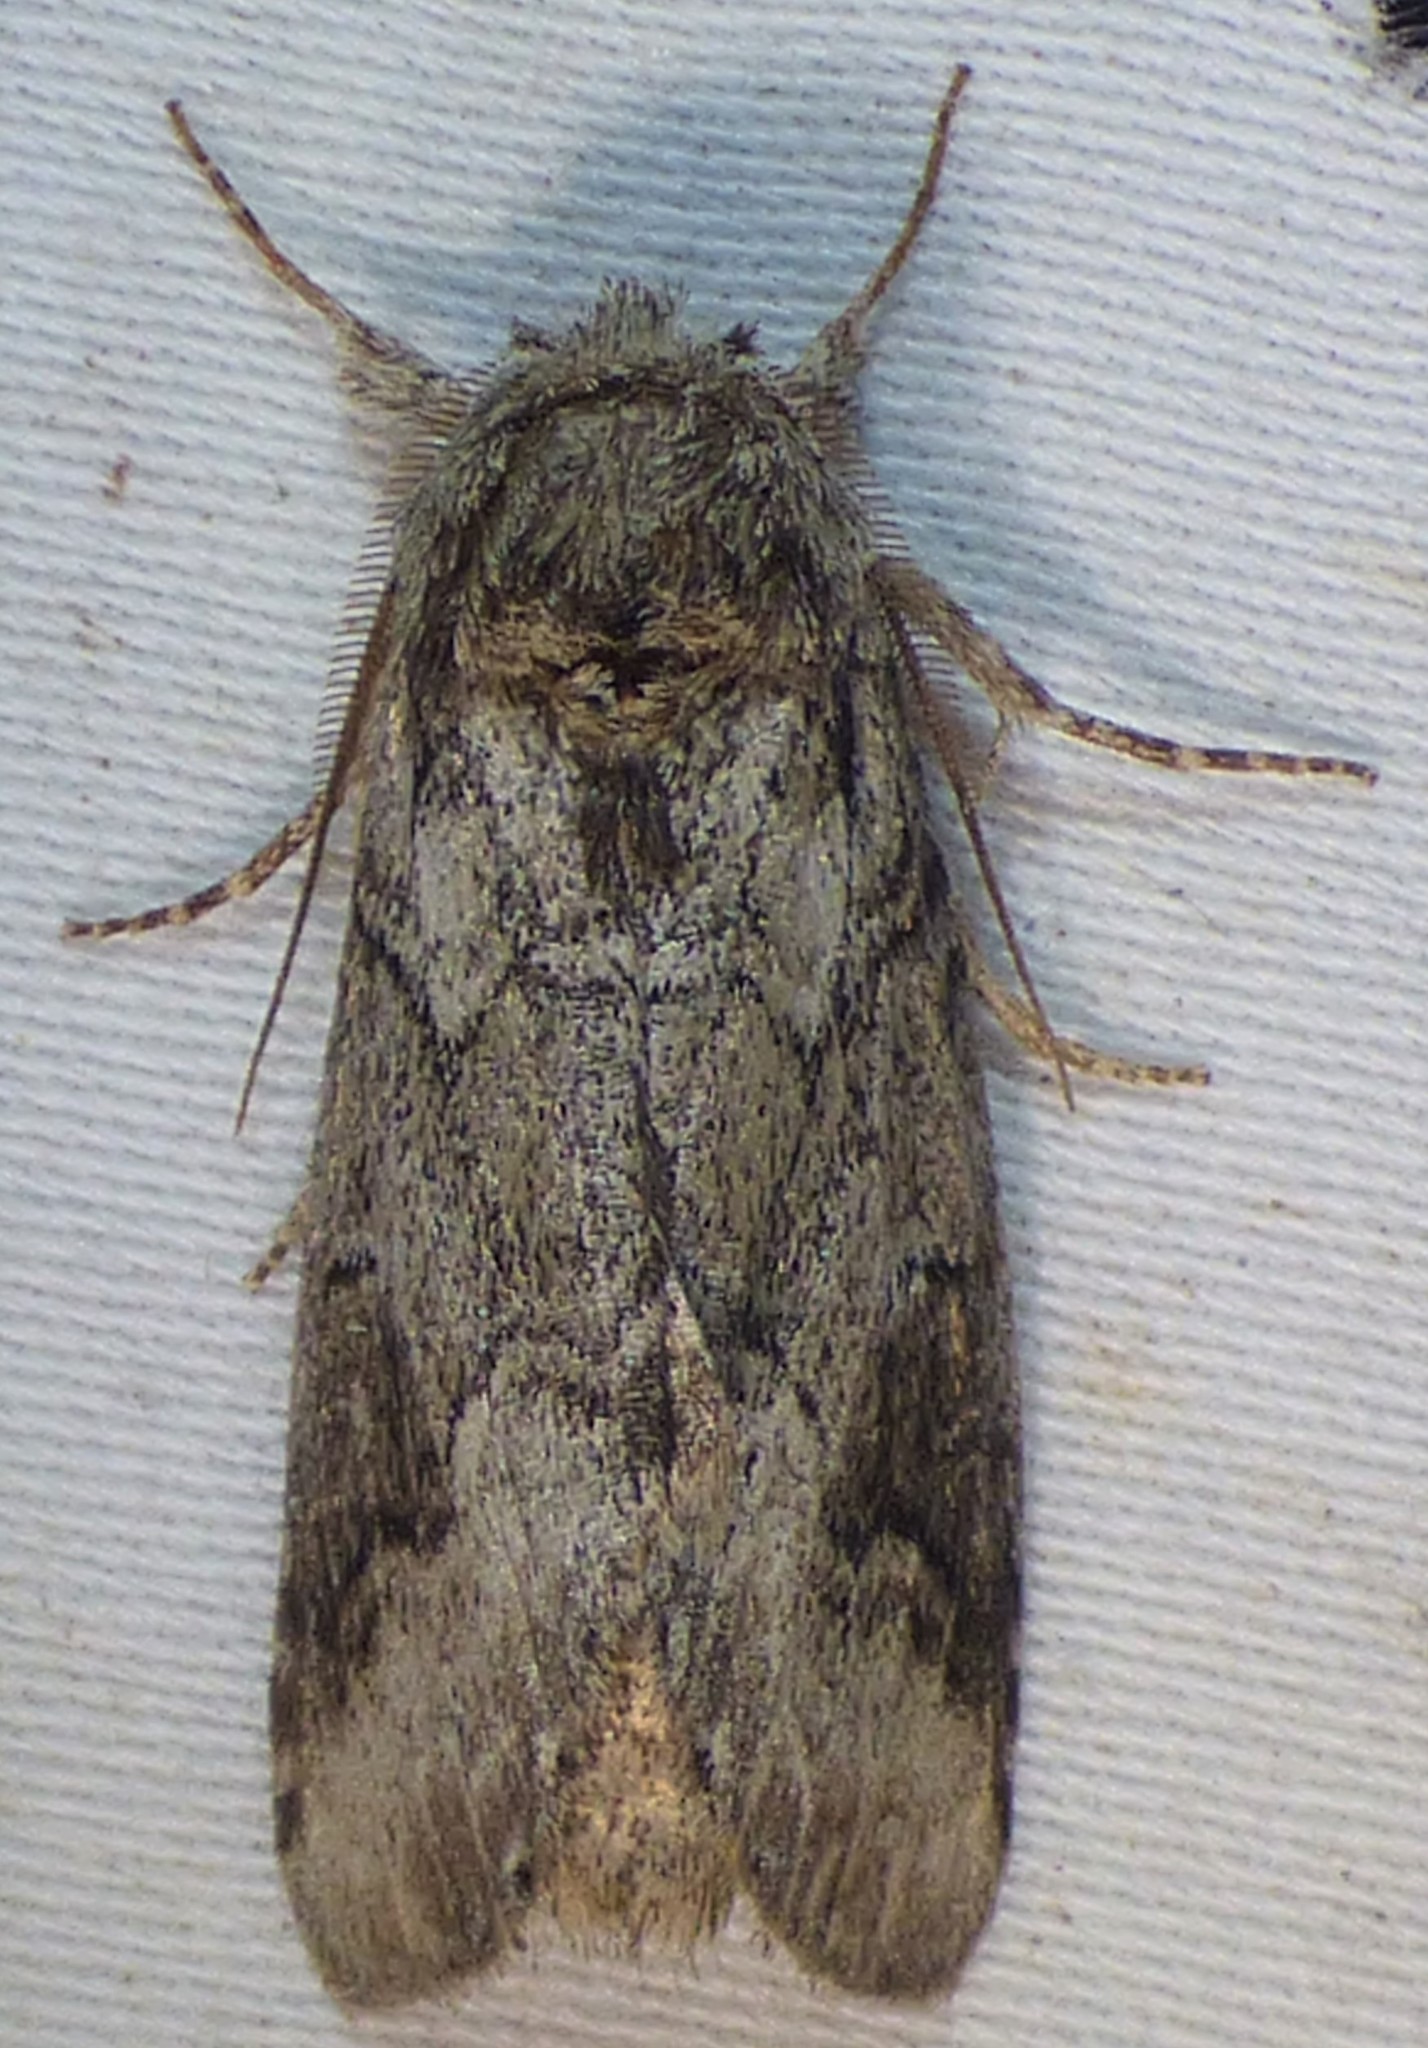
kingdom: Animalia
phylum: Arthropoda
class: Insecta
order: Lepidoptera
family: Notodontidae
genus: Lochmaeus
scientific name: Lochmaeus bilineata
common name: Double-lined prominent
